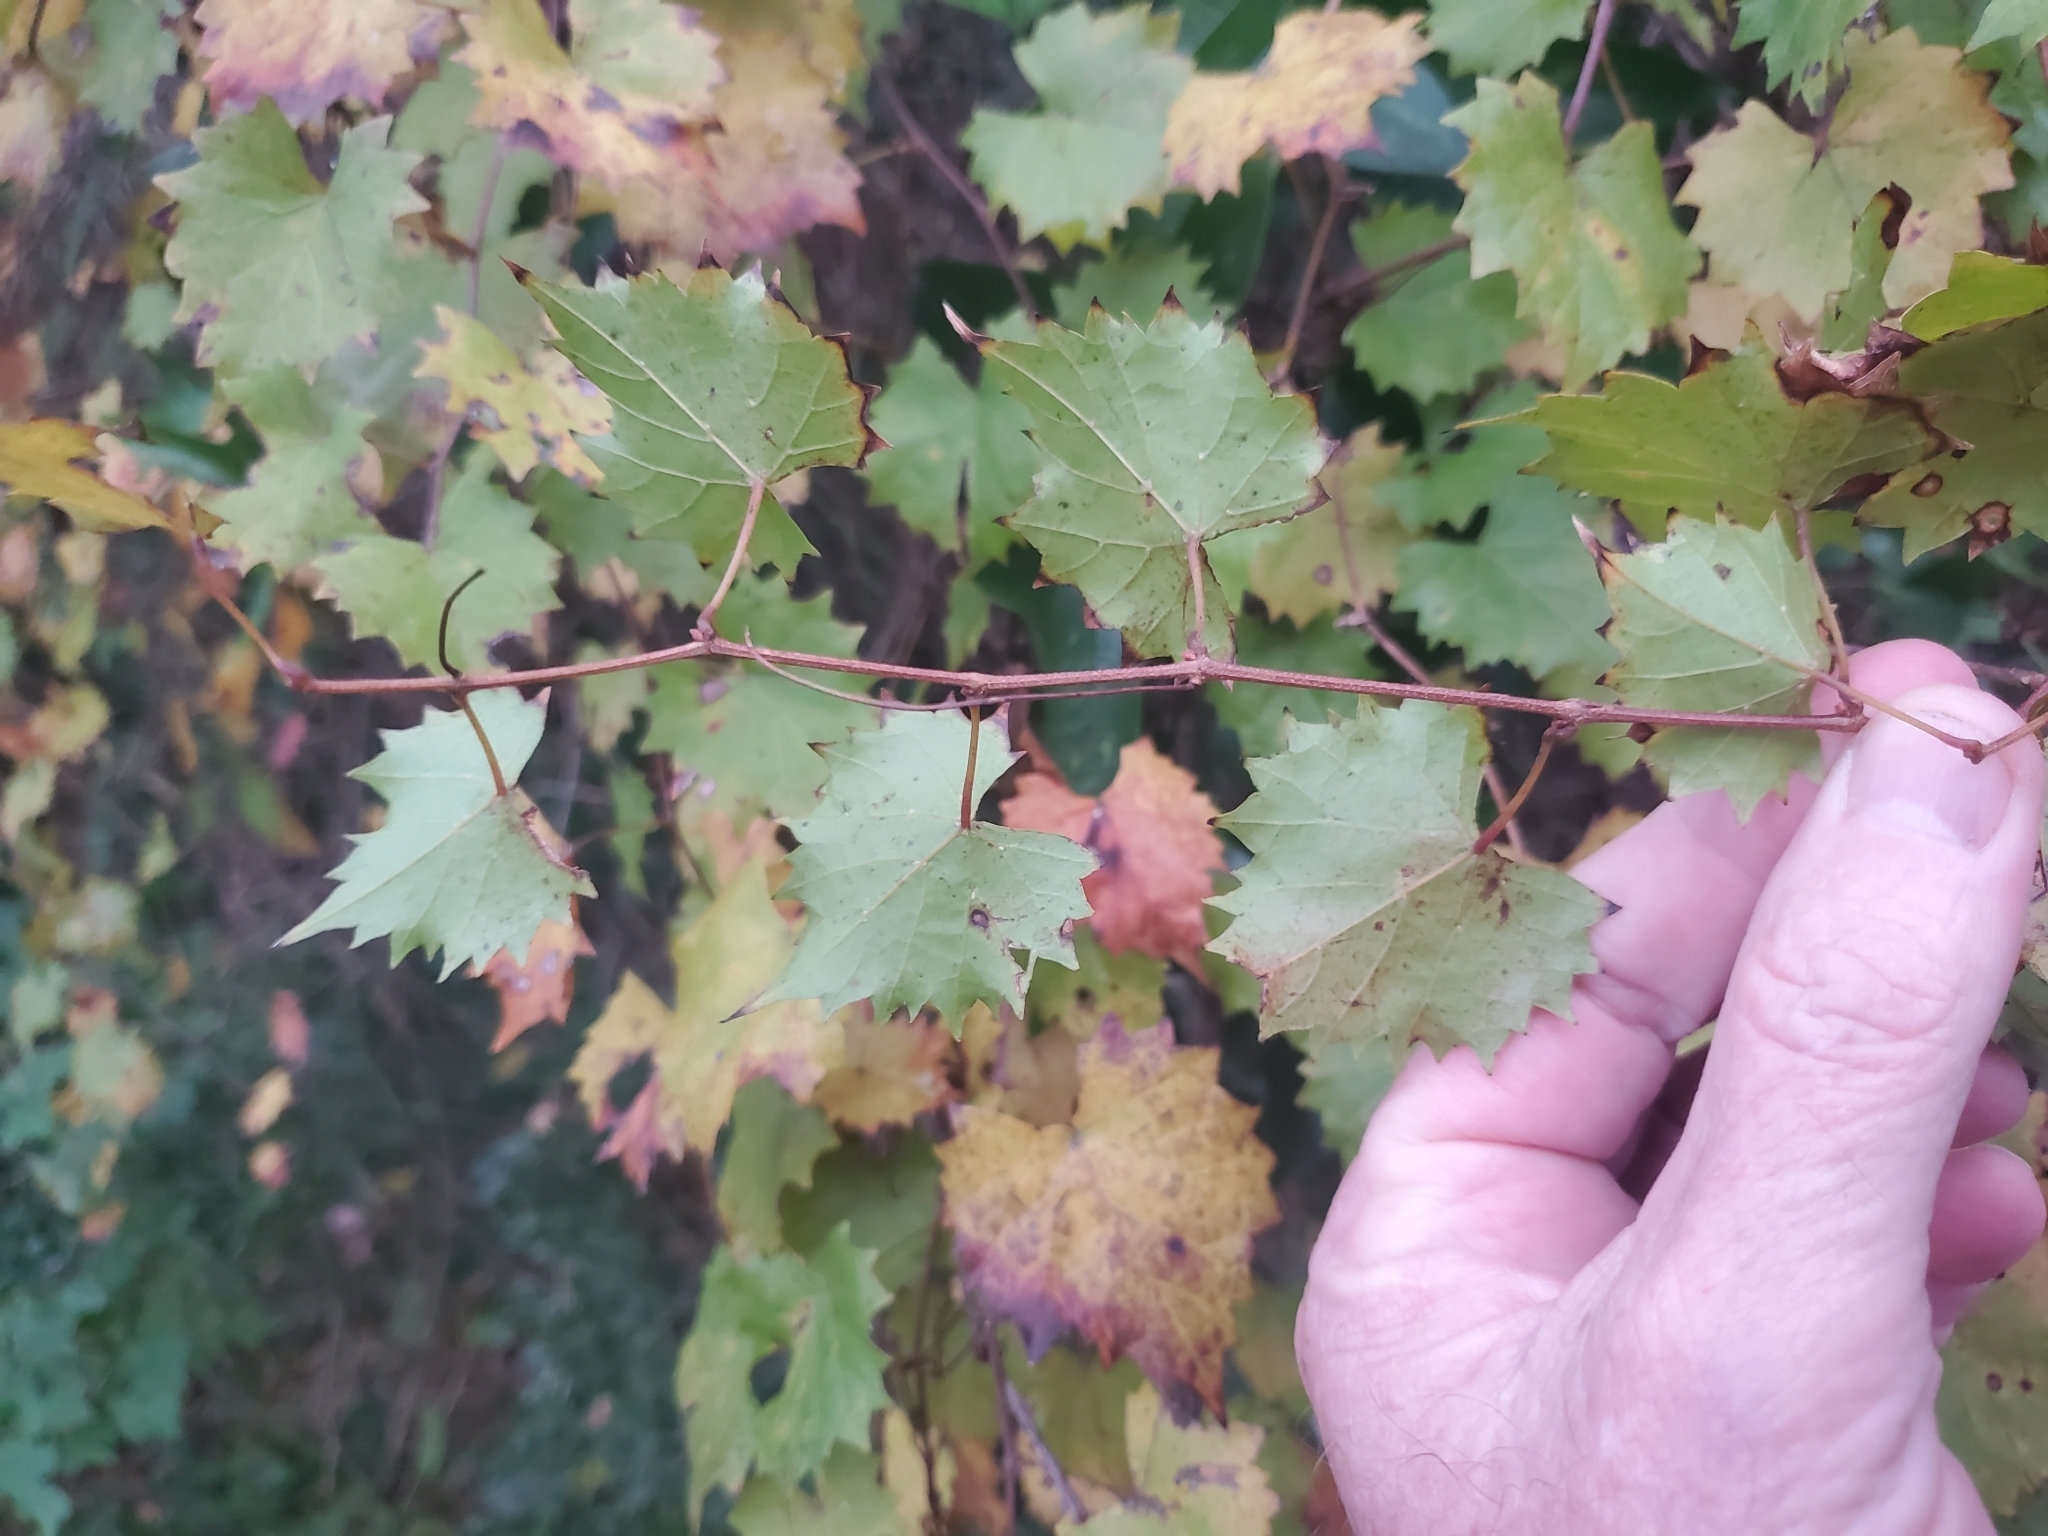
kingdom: Plantae
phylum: Tracheophyta
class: Magnoliopsida
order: Vitales
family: Vitaceae
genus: Vitis
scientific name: Vitis rotundifolia
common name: Muscadine grape
